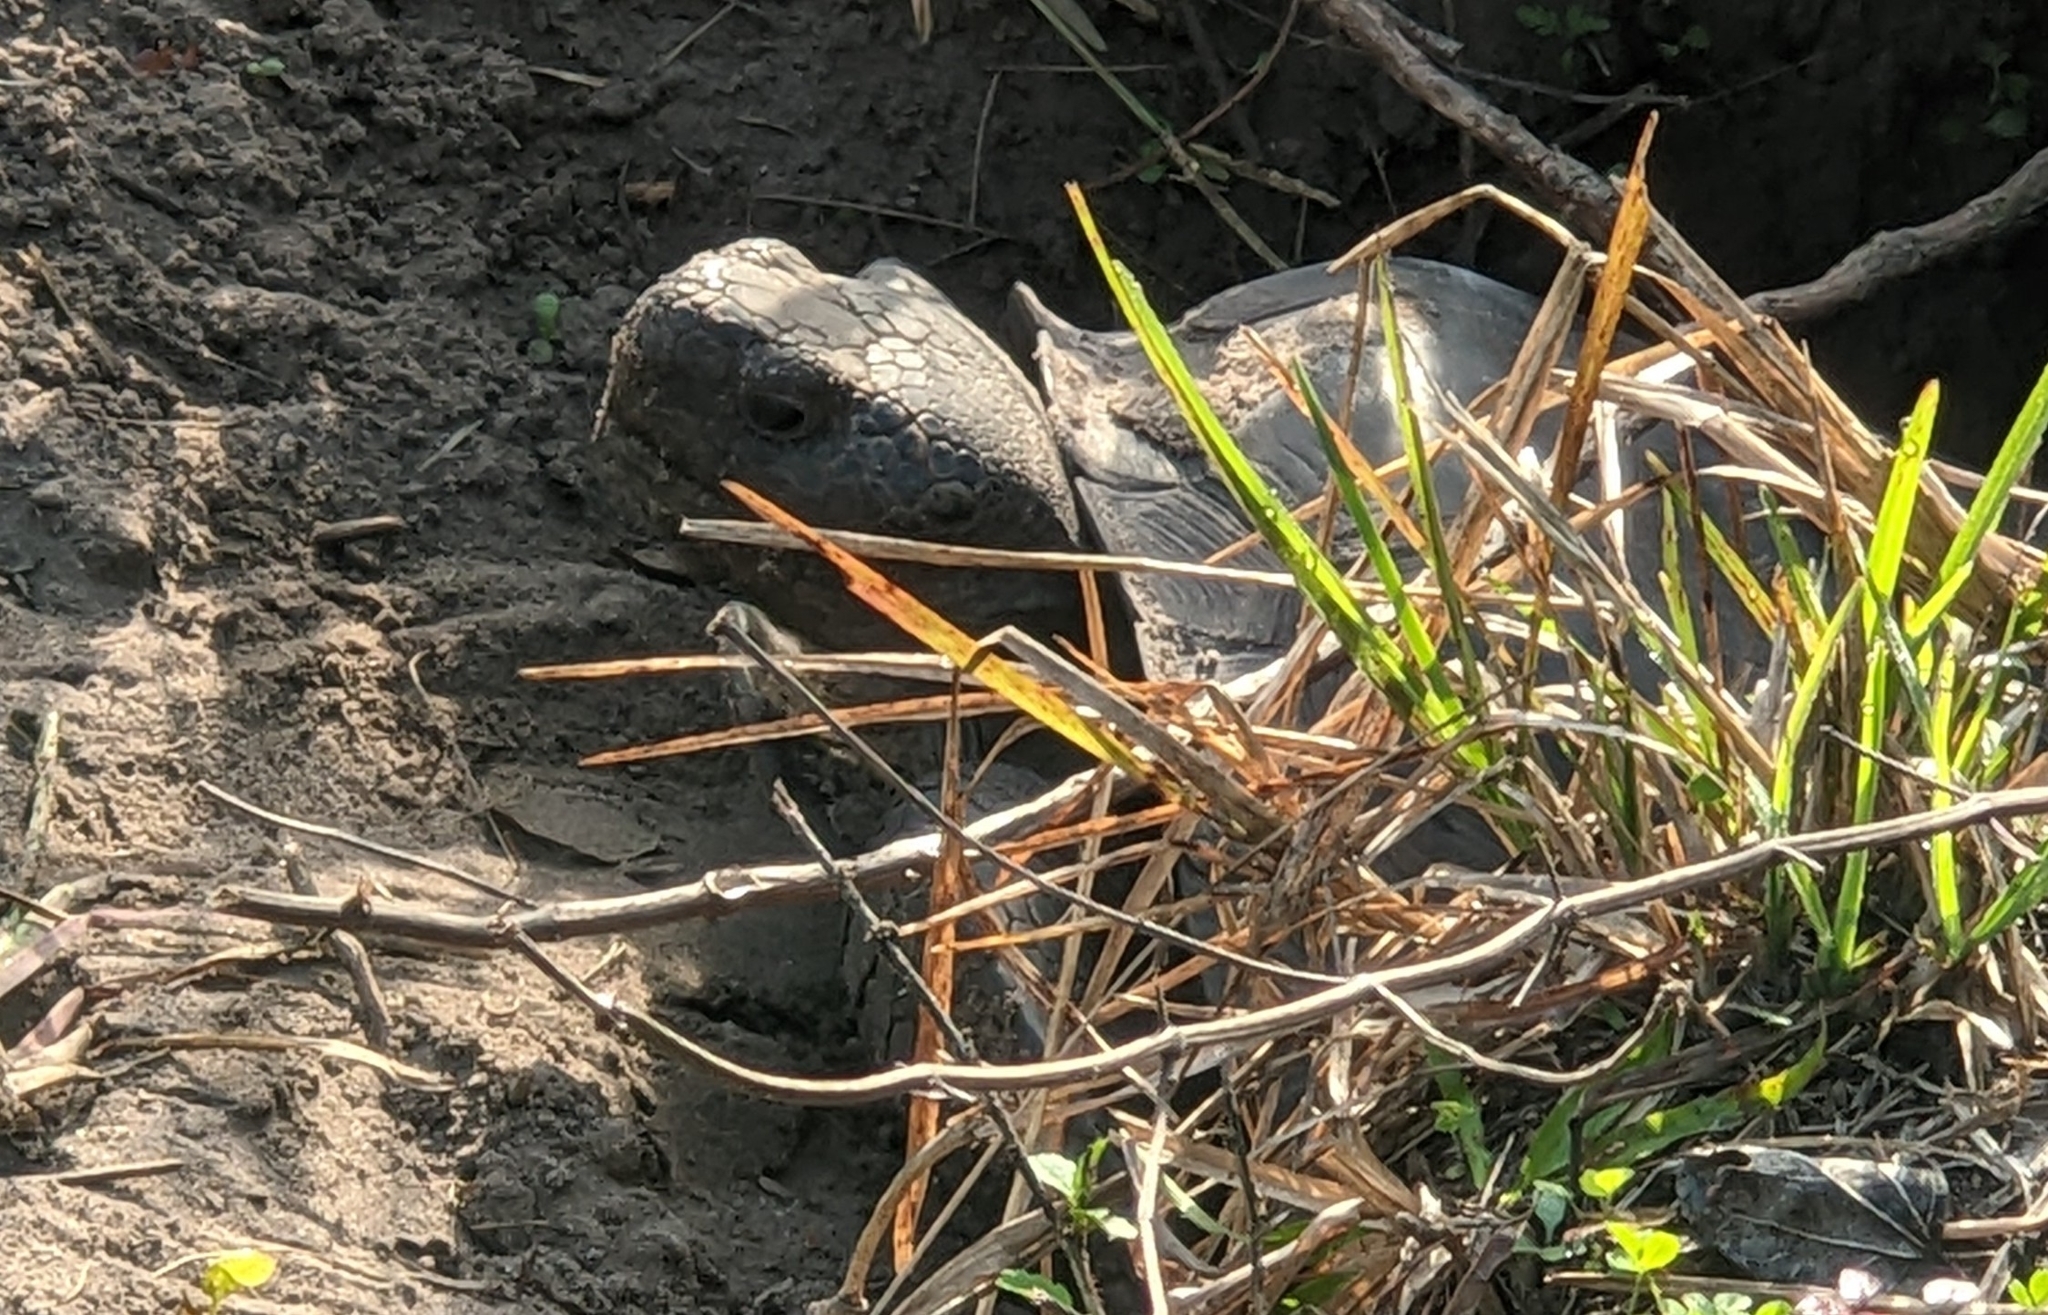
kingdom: Animalia
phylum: Chordata
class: Testudines
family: Testudinidae
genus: Gopherus
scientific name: Gopherus polyphemus
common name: Florida gopher tortoise
